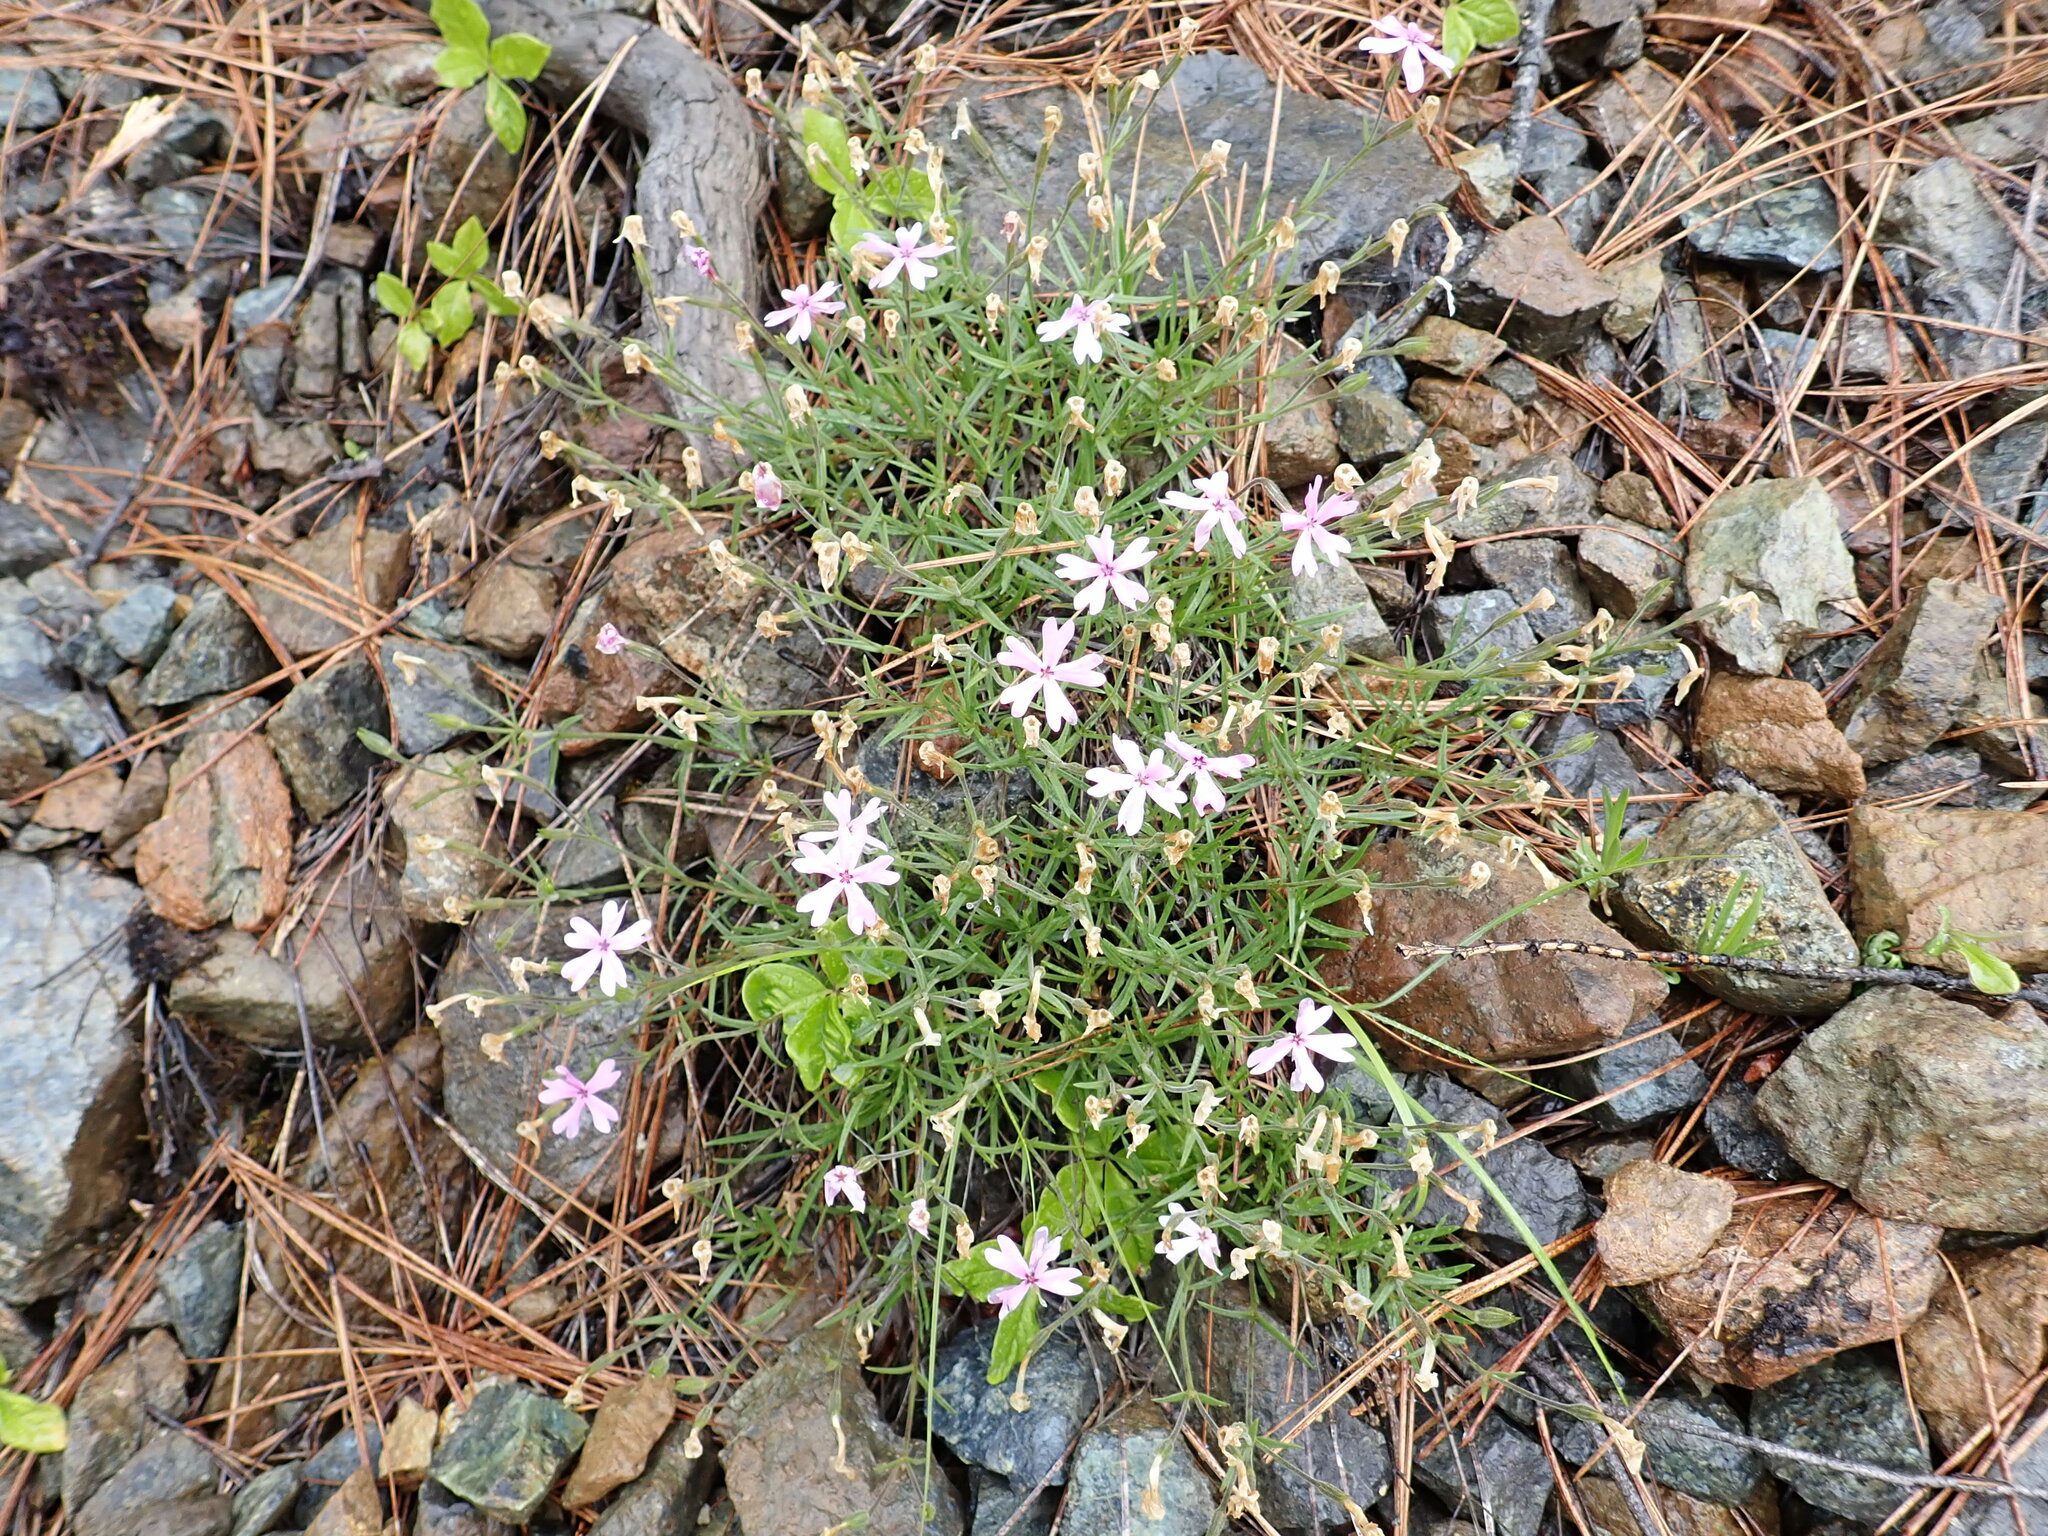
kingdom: Plantae
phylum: Tracheophyta
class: Magnoliopsida
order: Ericales
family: Polemoniaceae
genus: Phlox
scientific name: Phlox speciosa
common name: Bush phlox
